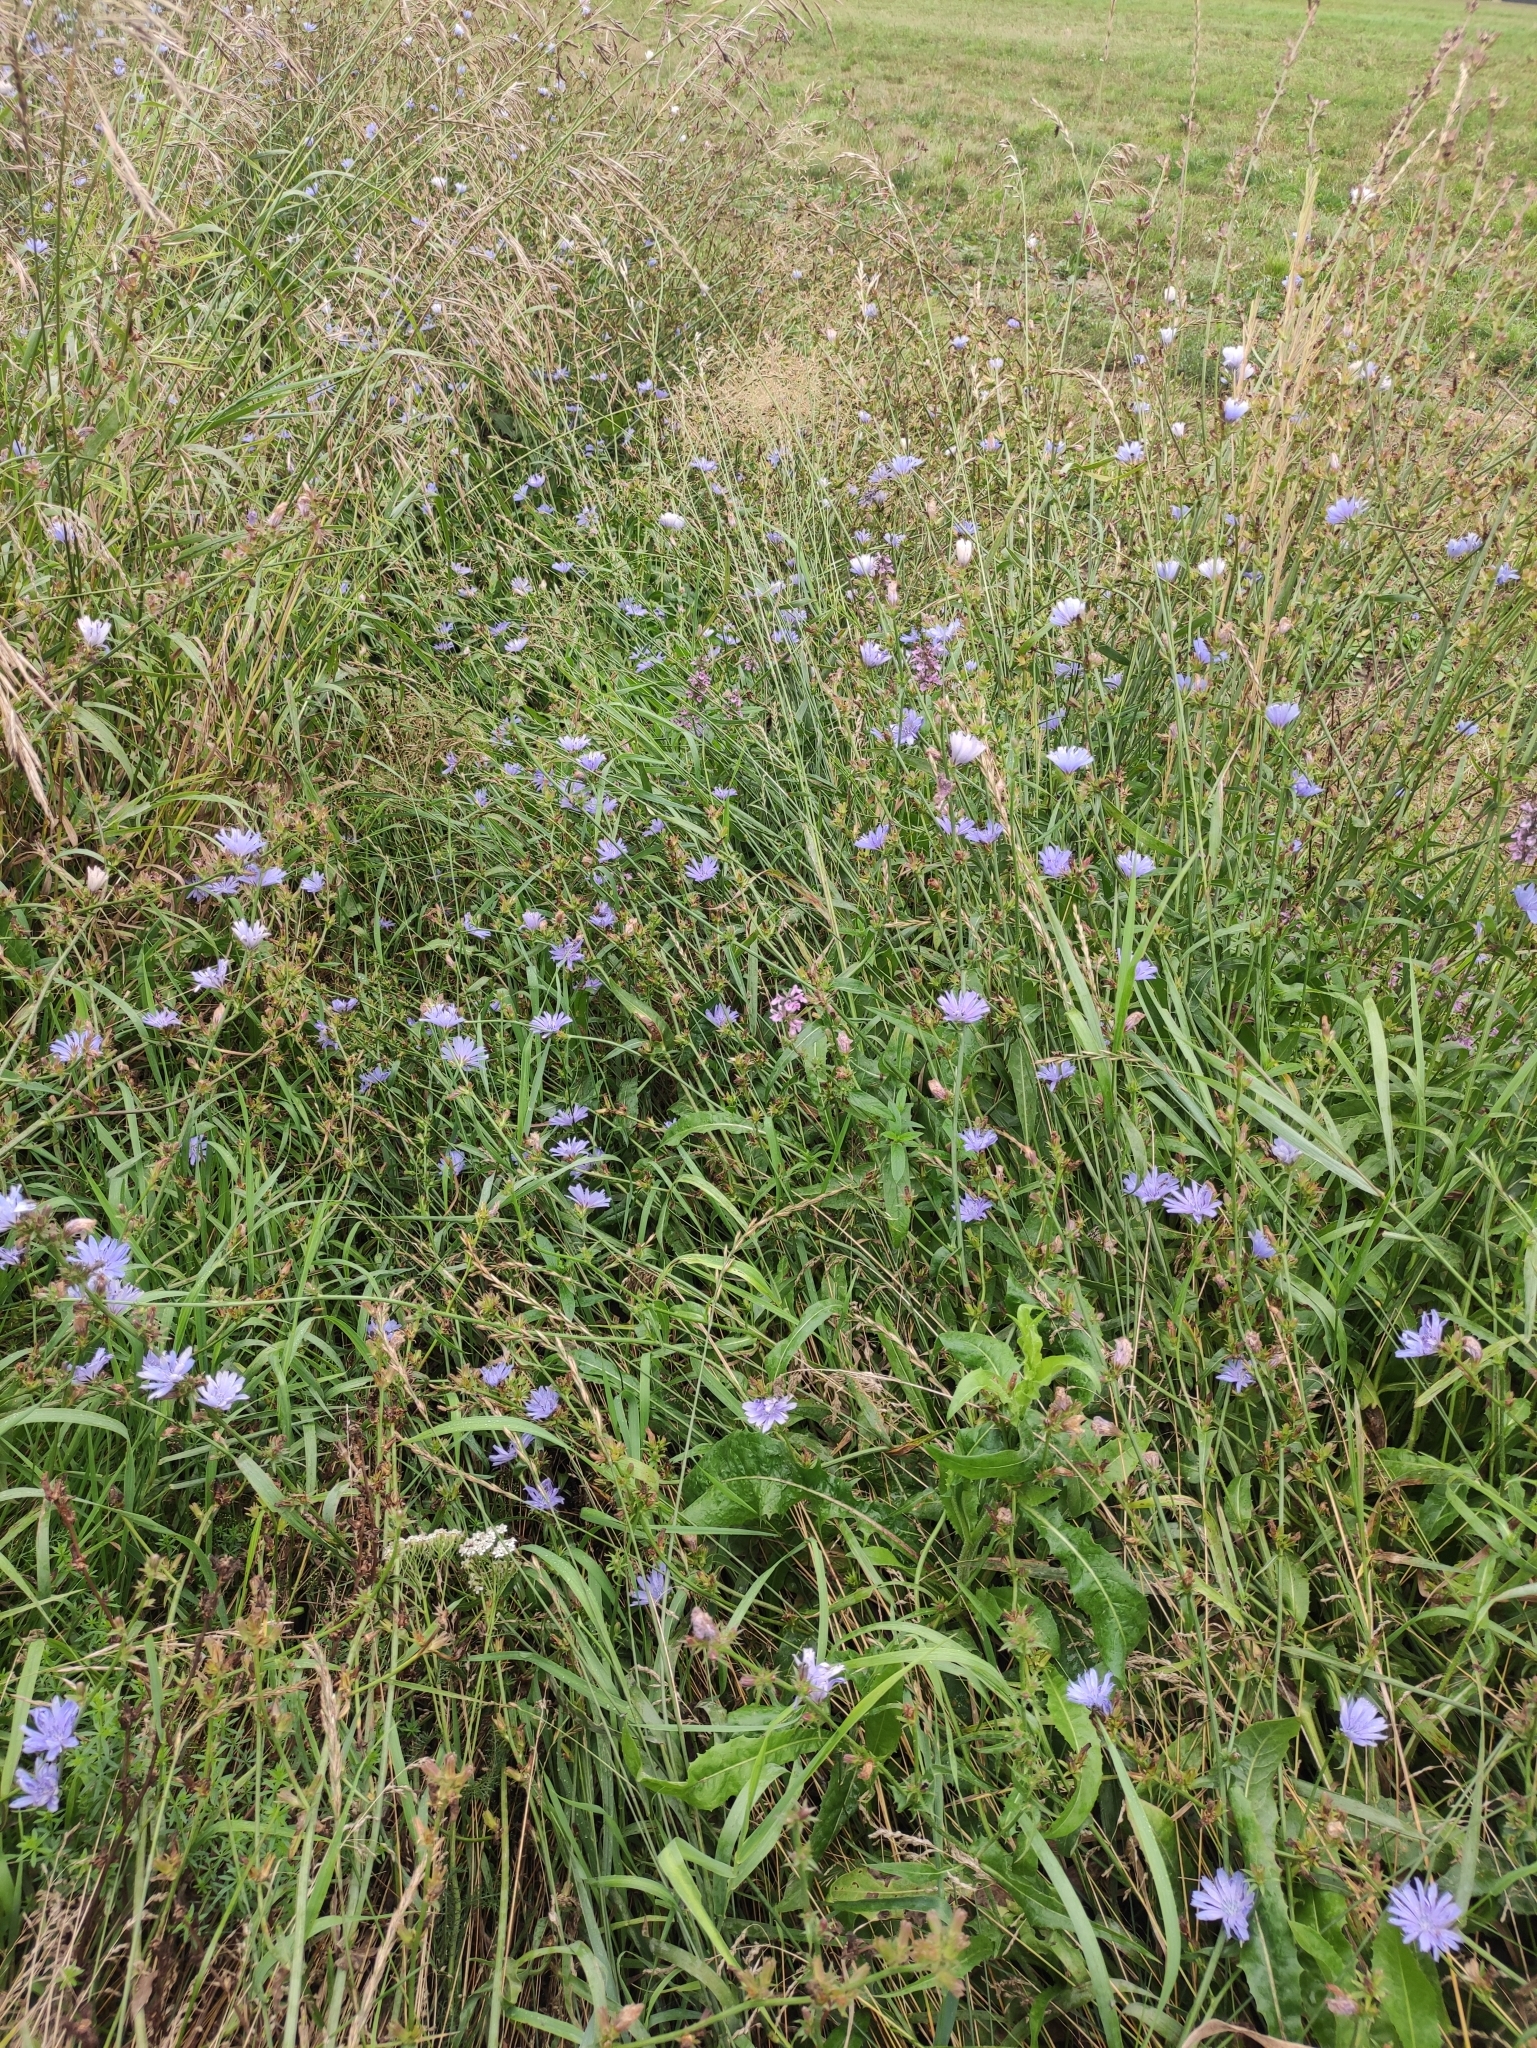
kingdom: Plantae
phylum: Tracheophyta
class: Magnoliopsida
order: Asterales
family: Asteraceae
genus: Cichorium
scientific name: Cichorium intybus
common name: Chicory
